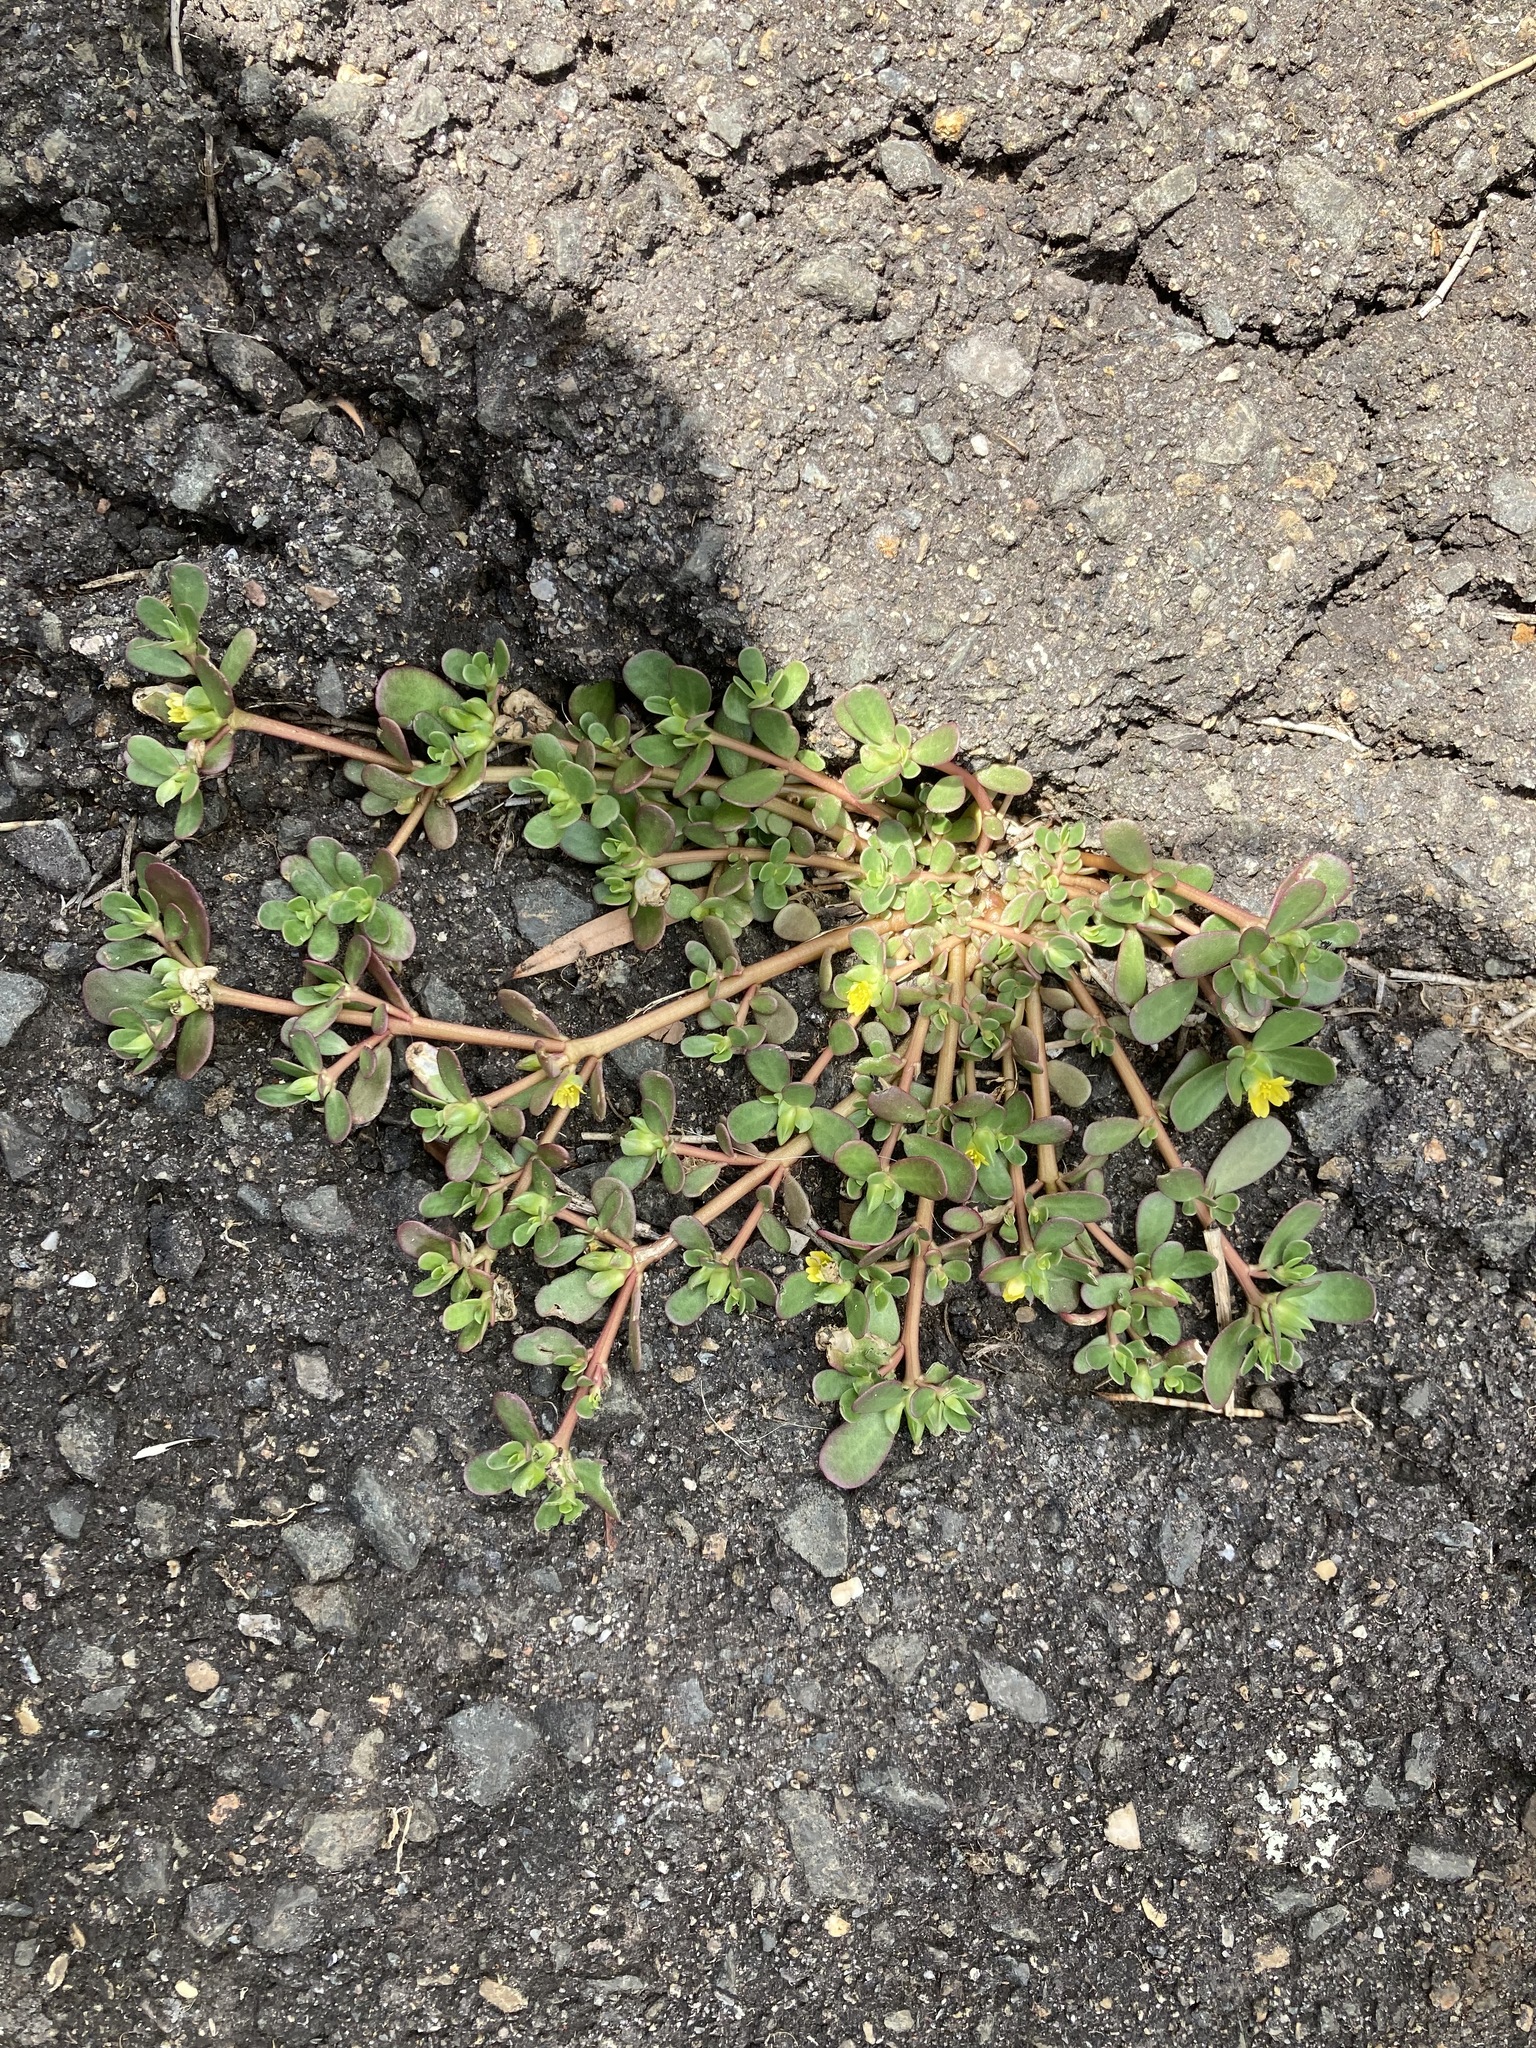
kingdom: Plantae
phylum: Tracheophyta
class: Magnoliopsida
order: Caryophyllales
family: Portulacaceae
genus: Portulaca
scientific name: Portulaca oleracea
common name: Common purslane
